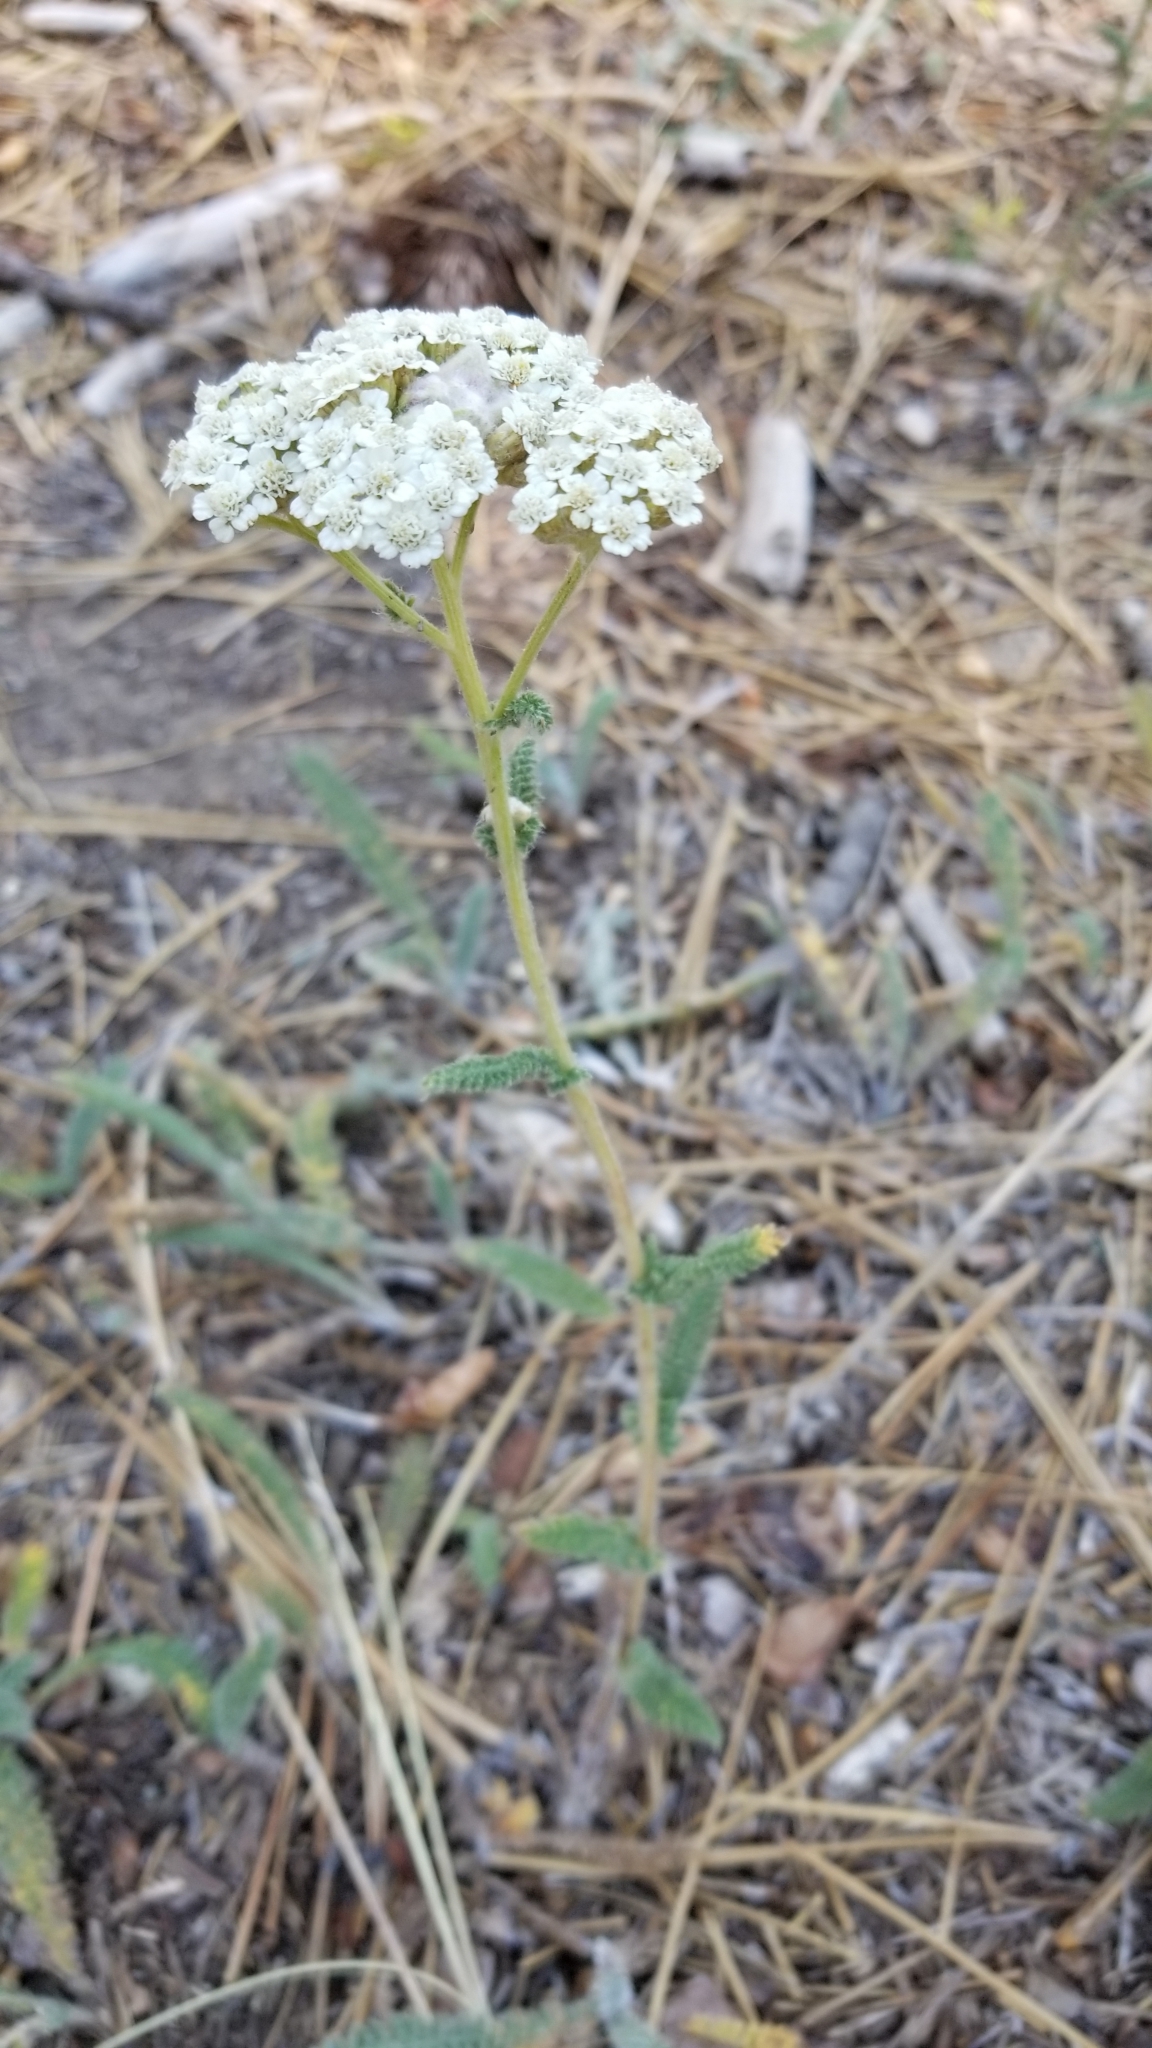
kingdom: Plantae
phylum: Tracheophyta
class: Magnoliopsida
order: Asterales
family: Asteraceae
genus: Achillea
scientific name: Achillea millefolium
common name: Yarrow
